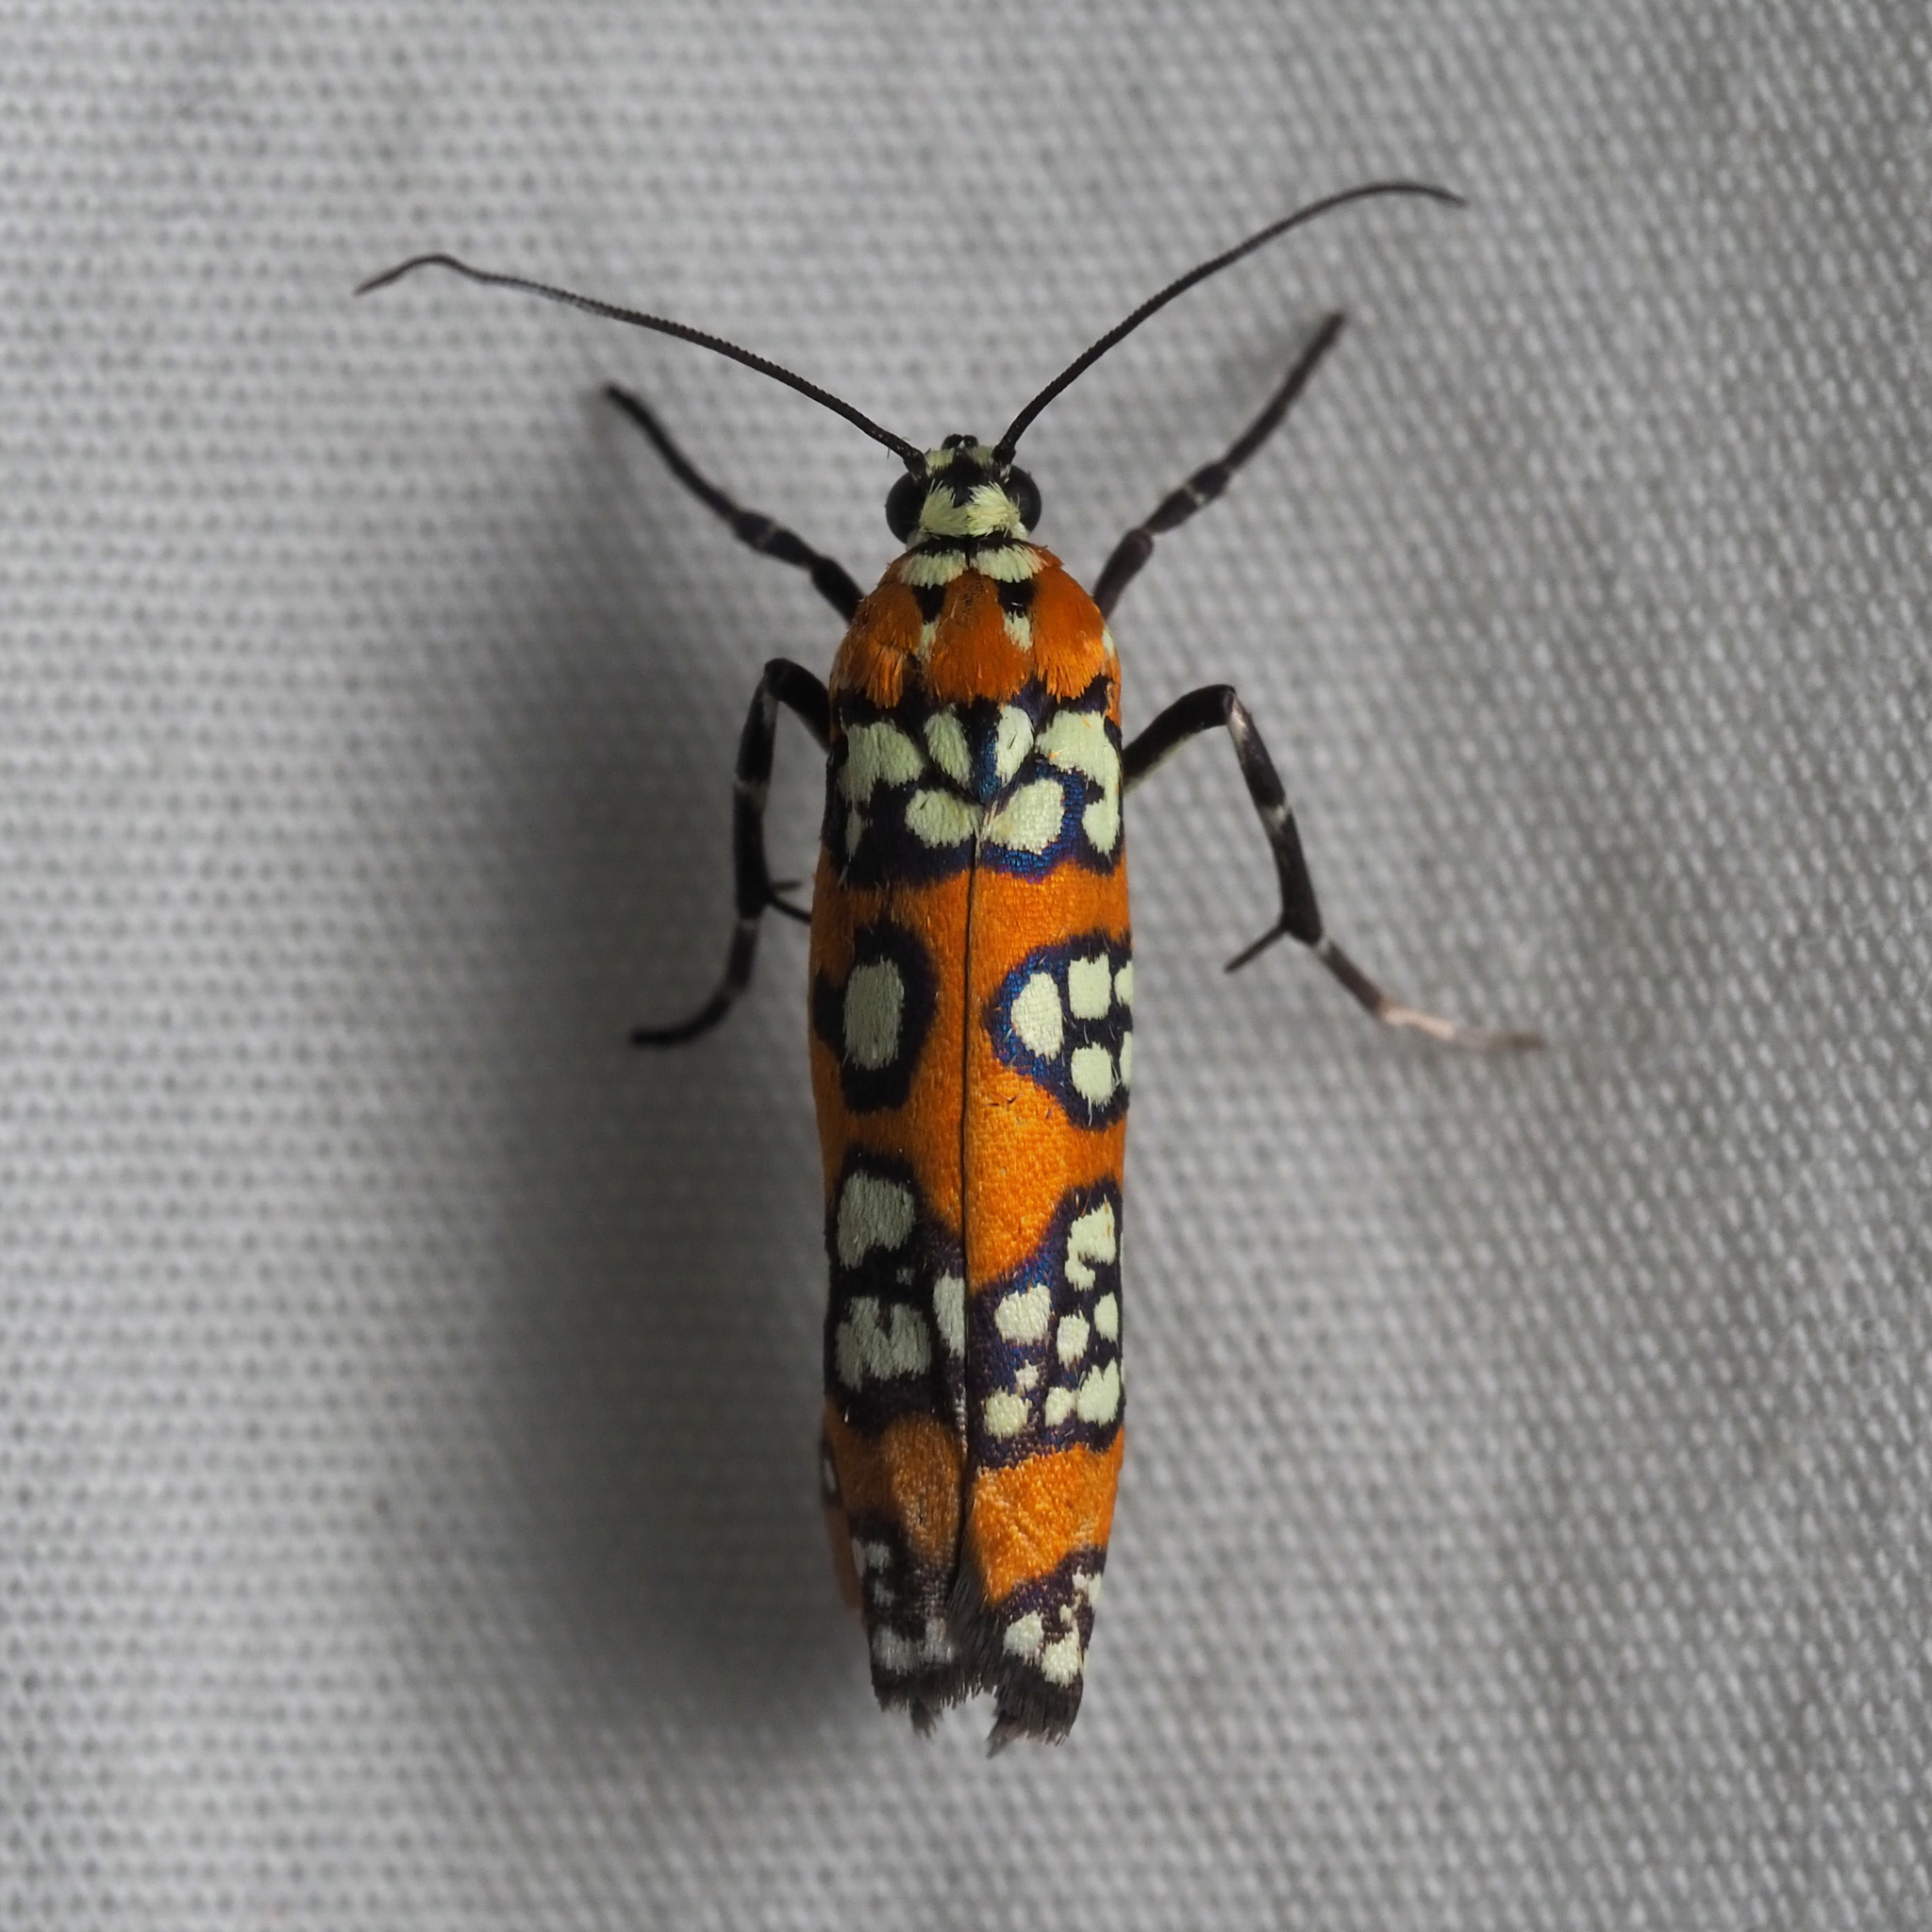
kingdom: Animalia
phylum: Arthropoda
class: Insecta
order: Lepidoptera
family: Attevidae
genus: Atteva
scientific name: Atteva punctella
